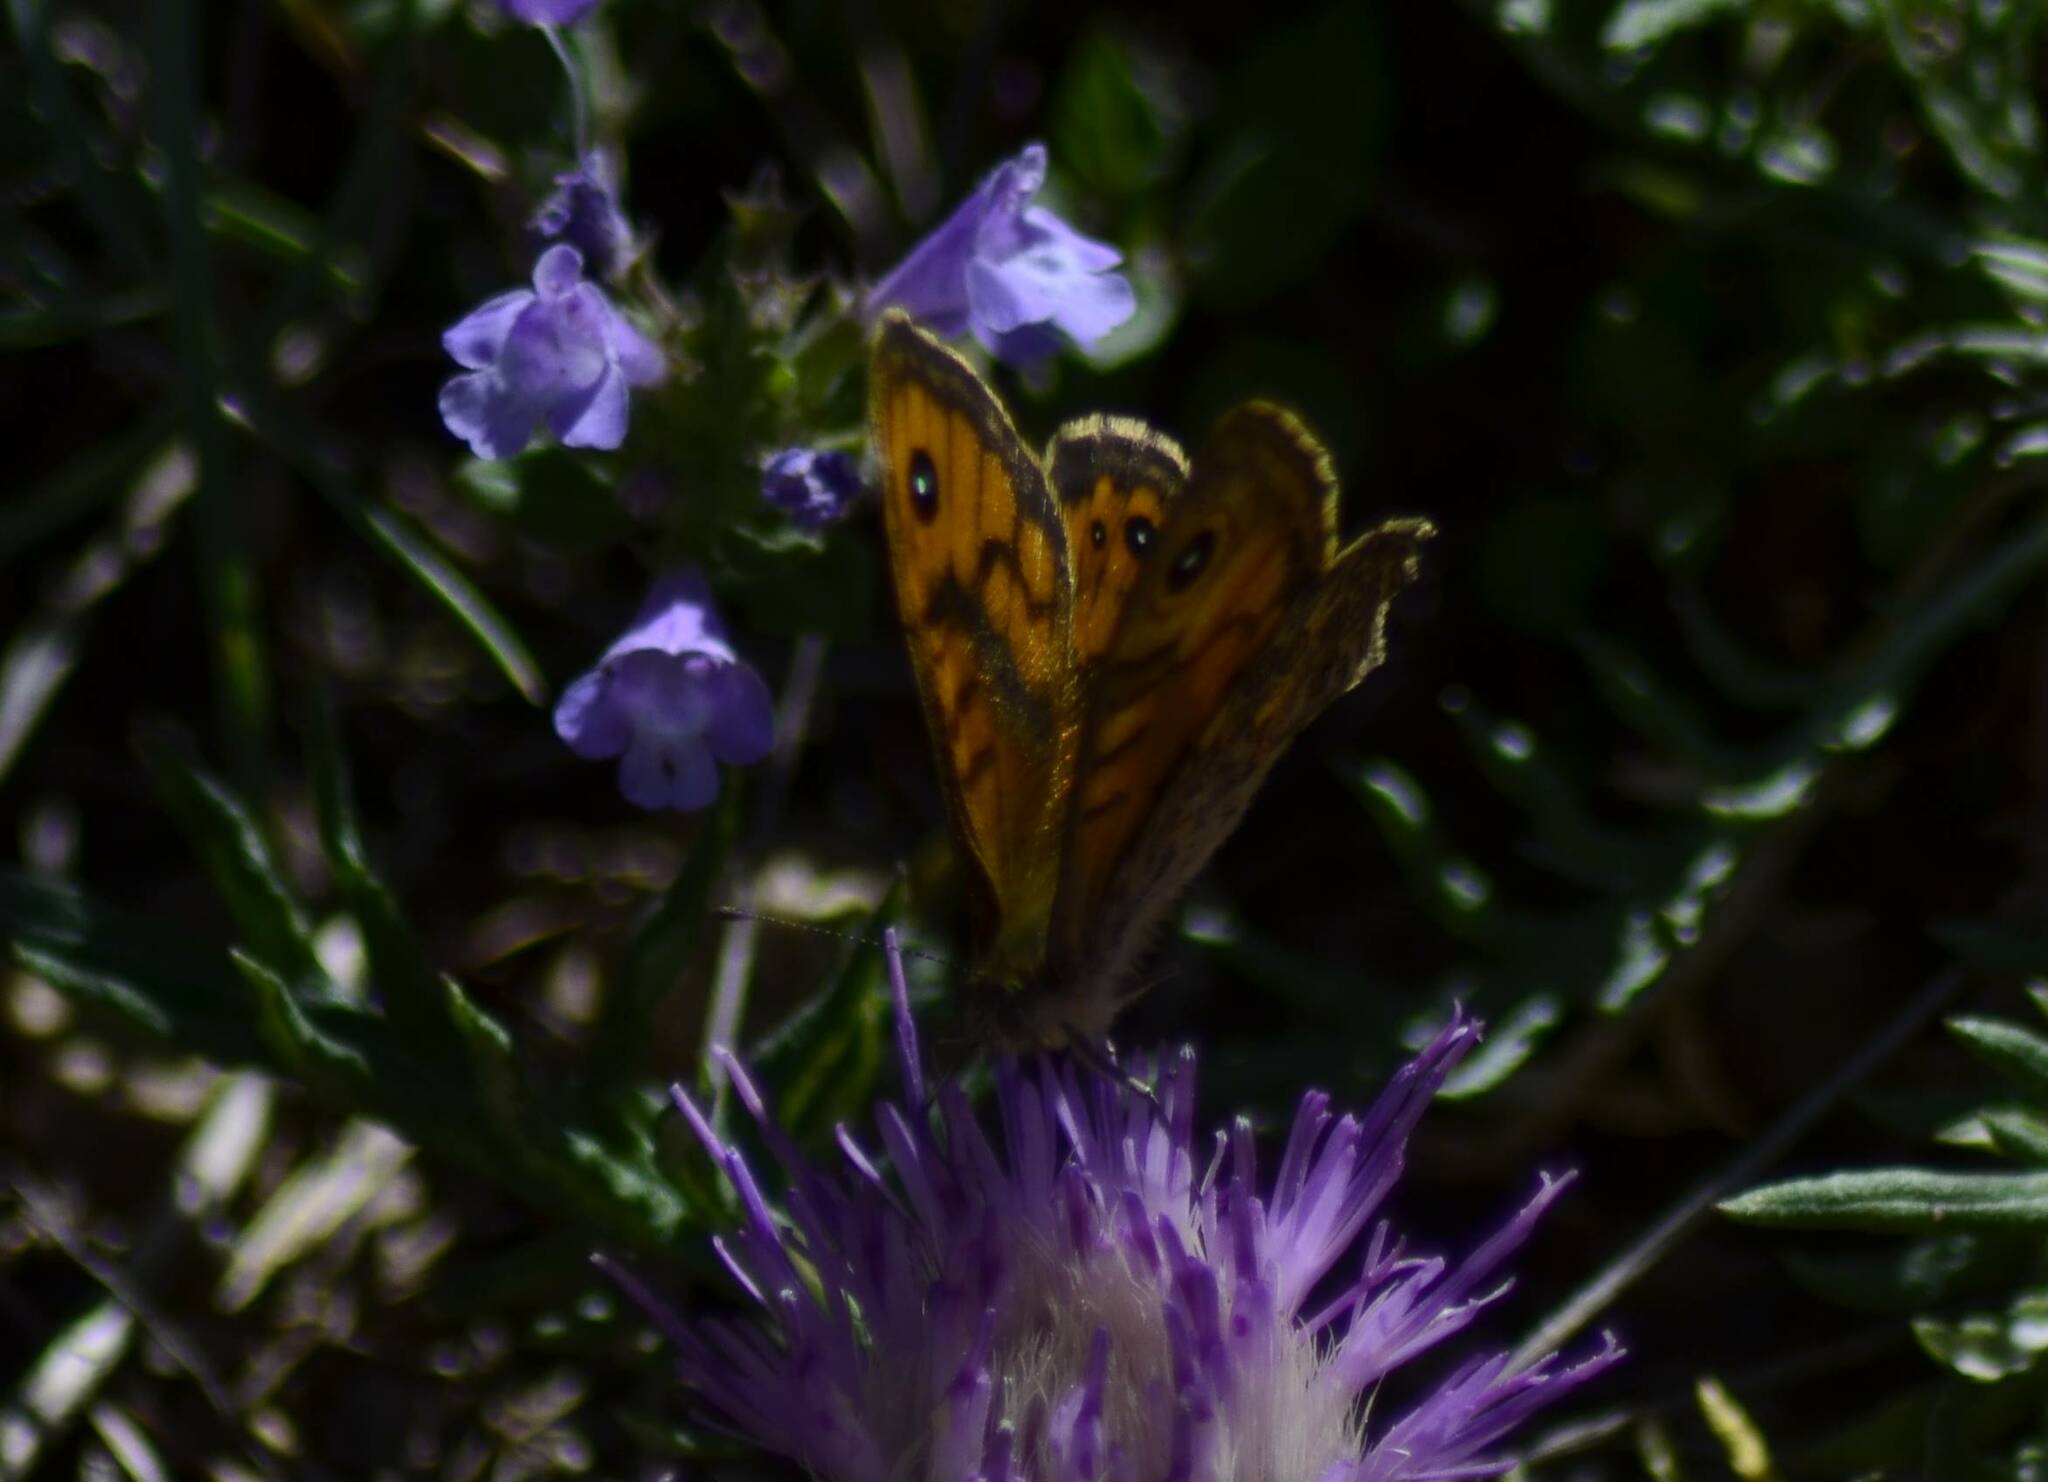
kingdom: Animalia
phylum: Arthropoda
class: Insecta
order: Lepidoptera
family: Nymphalidae
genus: Pararge
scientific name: Pararge Lasiommata megera
